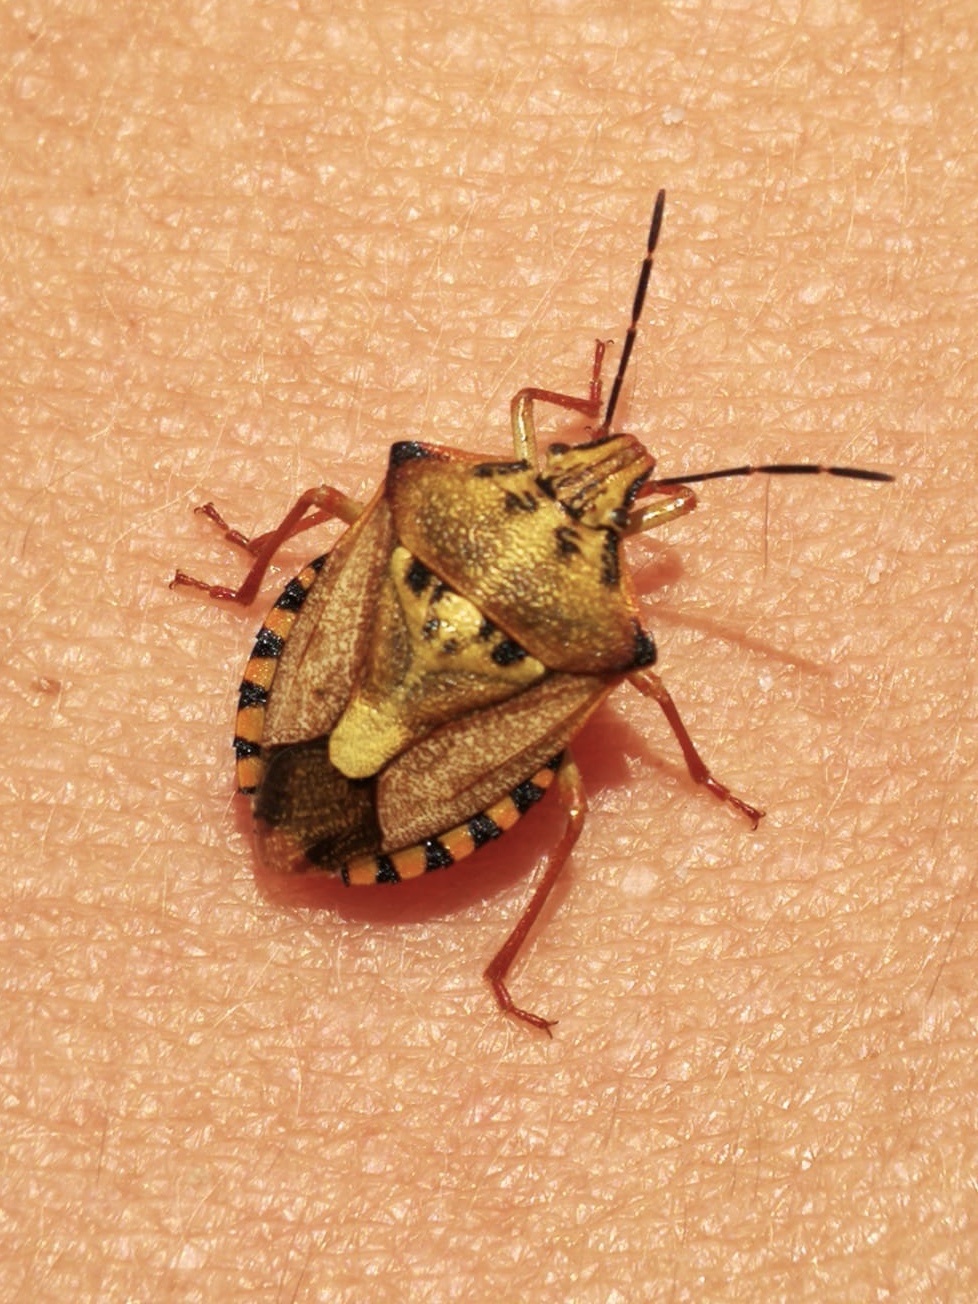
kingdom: Animalia
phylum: Arthropoda
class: Insecta
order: Hemiptera
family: Pentatomidae
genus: Carpocoris
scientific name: Carpocoris mediterraneus
